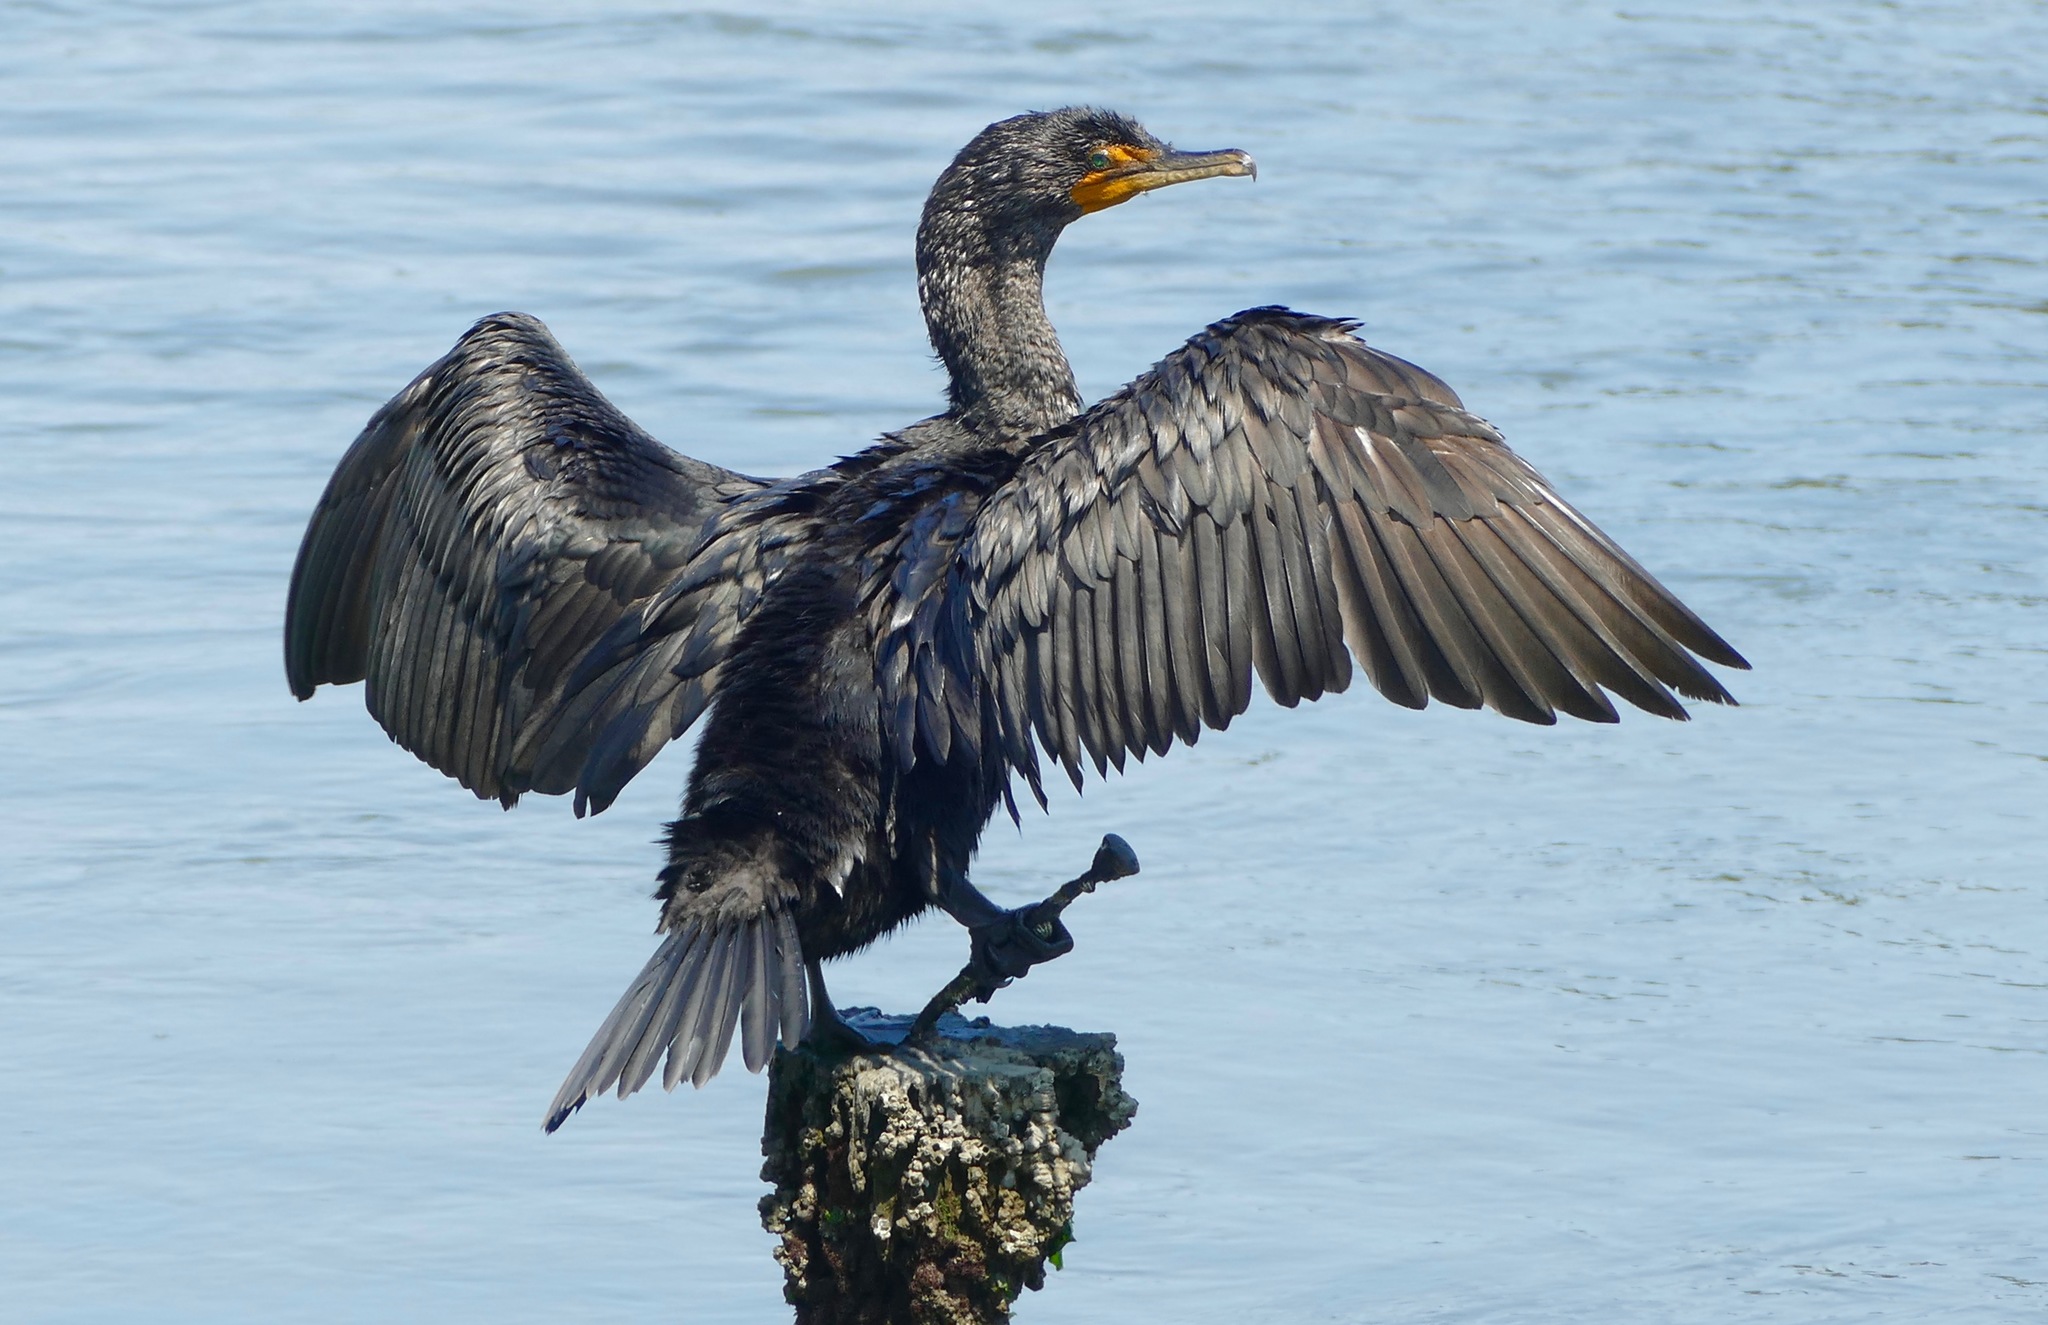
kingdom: Animalia
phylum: Chordata
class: Aves
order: Suliformes
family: Phalacrocoracidae
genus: Phalacrocorax
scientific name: Phalacrocorax auritus
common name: Double-crested cormorant
